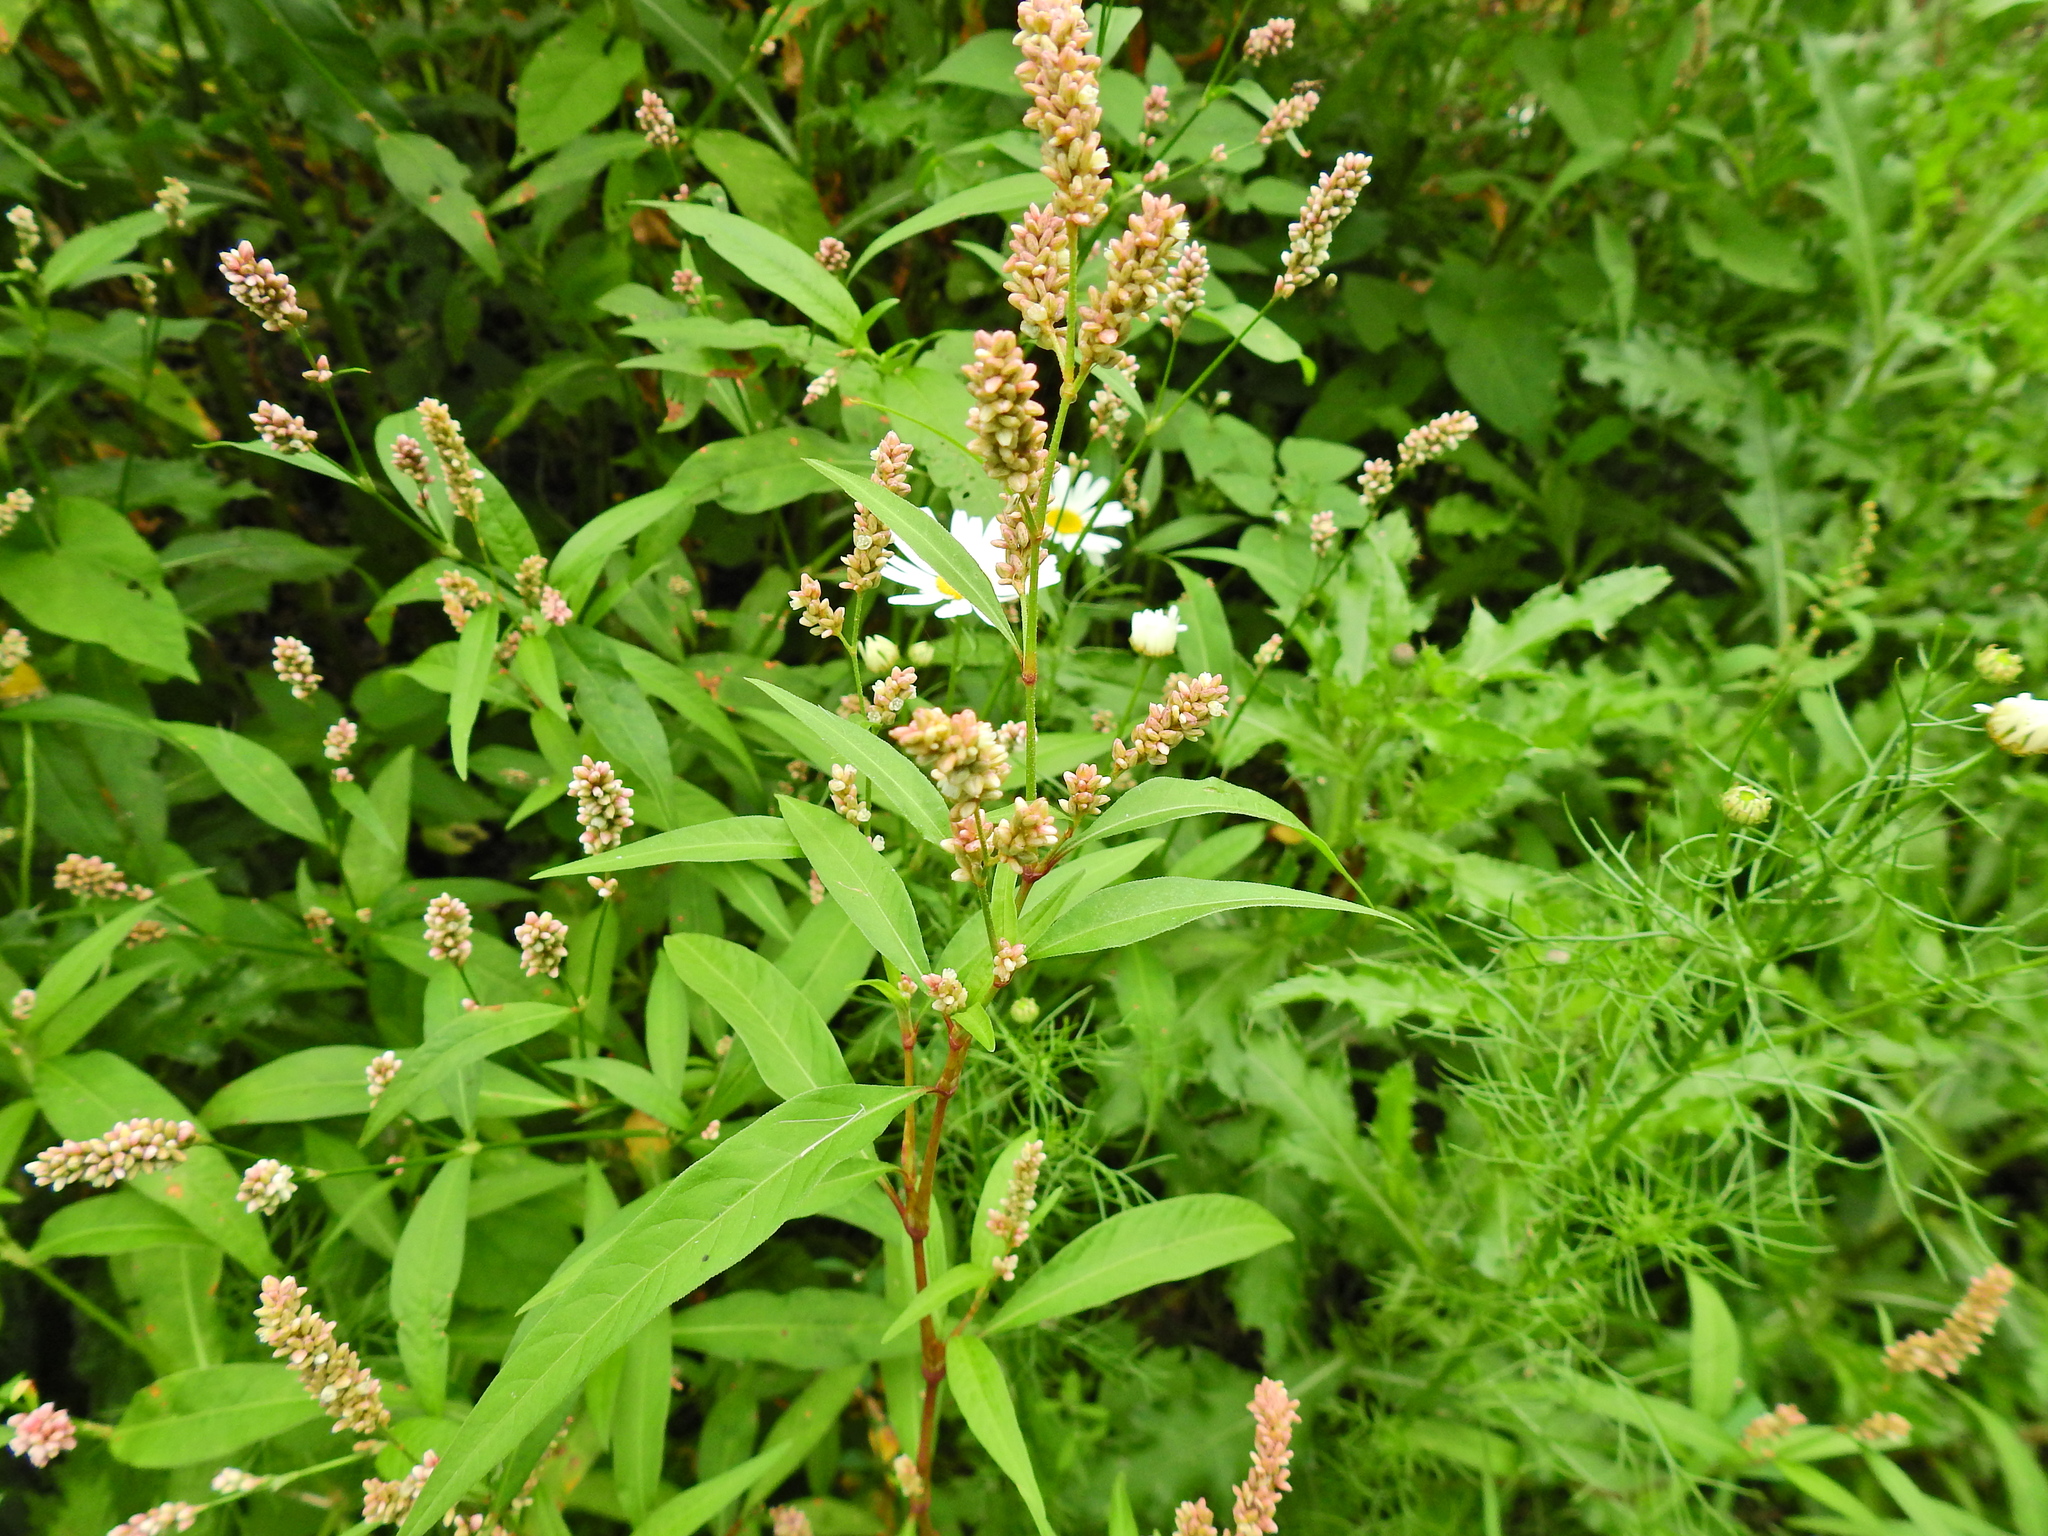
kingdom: Plantae
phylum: Tracheophyta
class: Magnoliopsida
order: Caryophyllales
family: Polygonaceae
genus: Persicaria
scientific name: Persicaria maculosa
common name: Redshank
